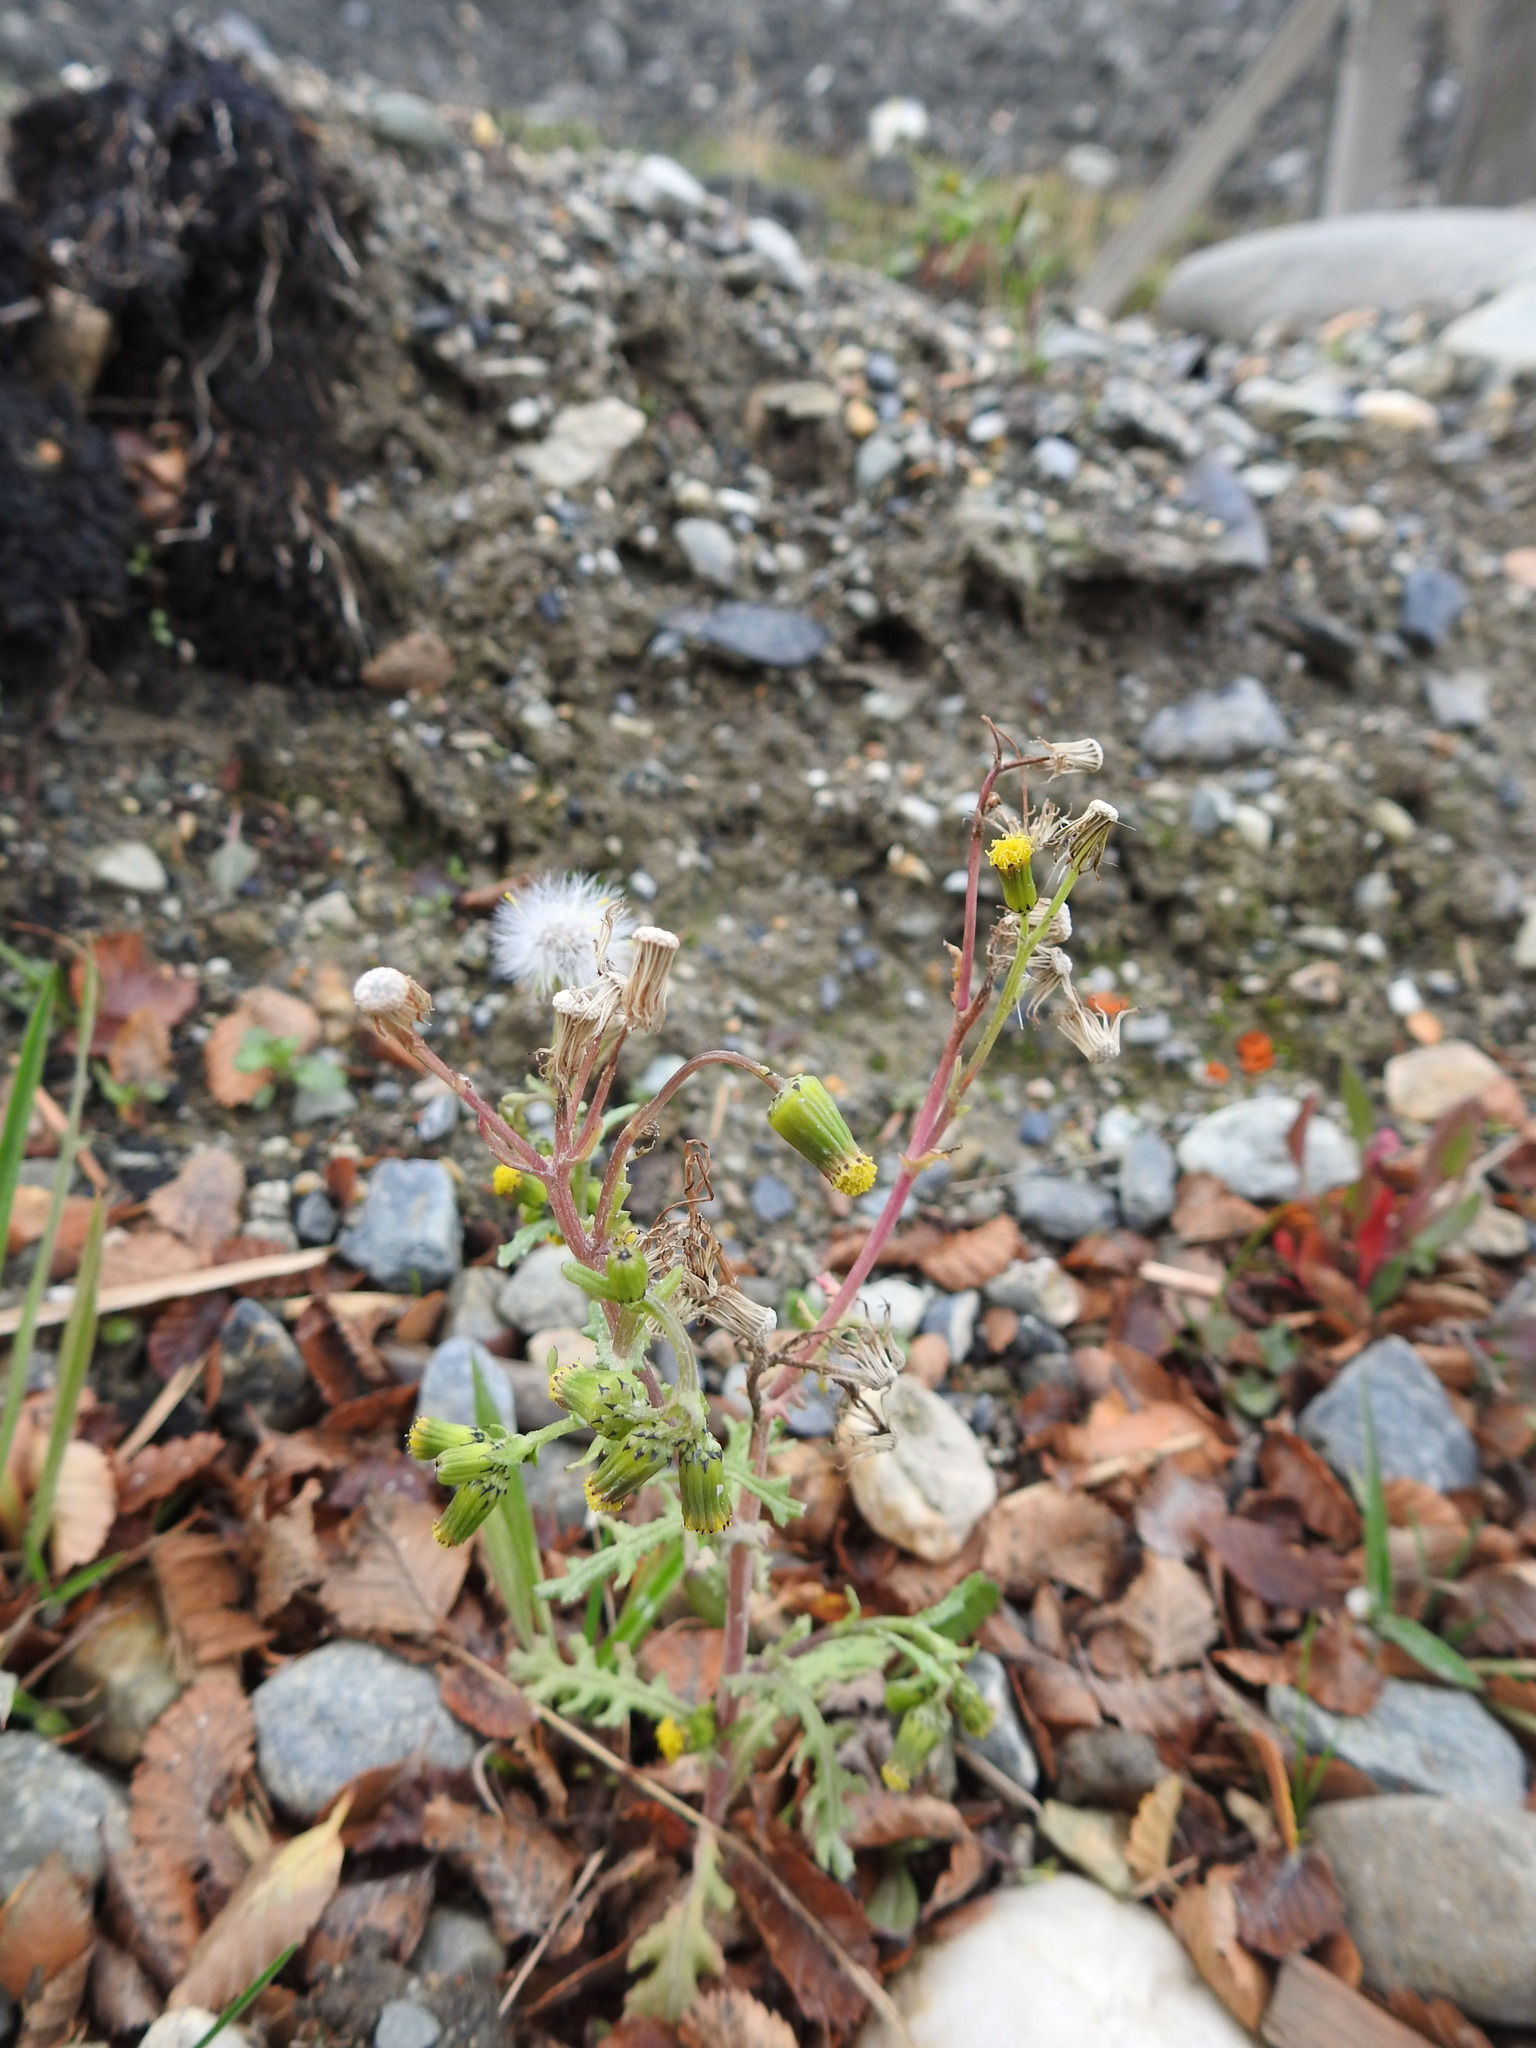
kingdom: Plantae
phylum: Tracheophyta
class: Magnoliopsida
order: Asterales
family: Asteraceae
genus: Senecio
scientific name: Senecio vulgaris
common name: Old-man-in-the-spring
